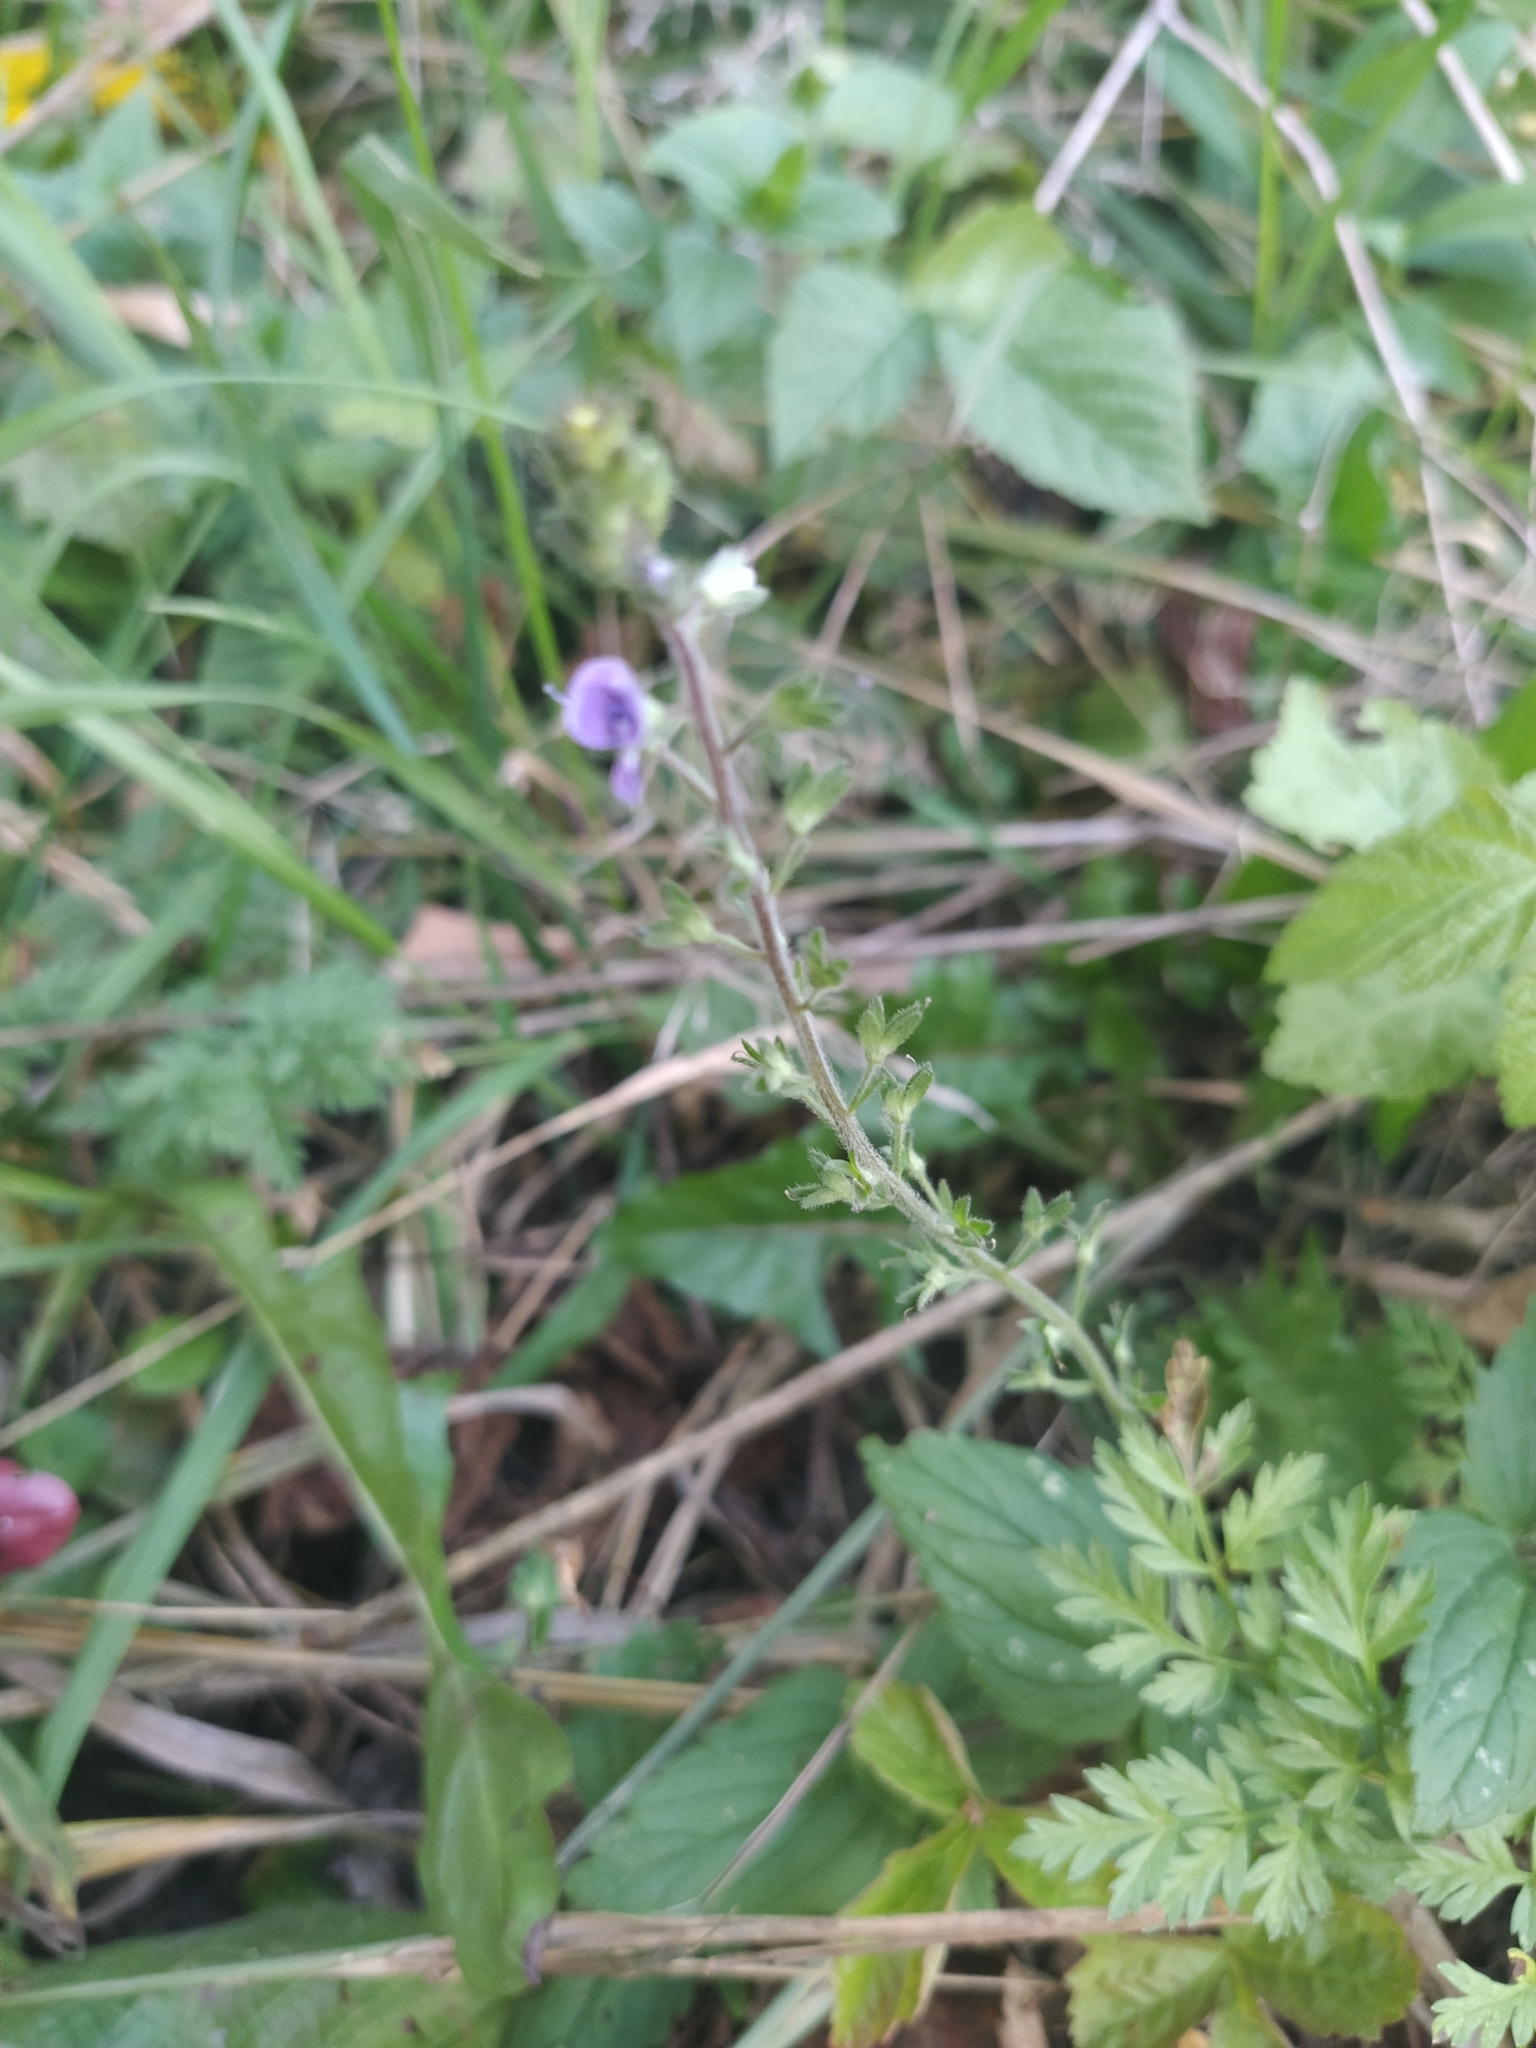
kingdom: Plantae
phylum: Tracheophyta
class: Magnoliopsida
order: Lamiales
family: Plantaginaceae
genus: Veronica
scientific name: Veronica chamaedrys
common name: Germander speedwell
